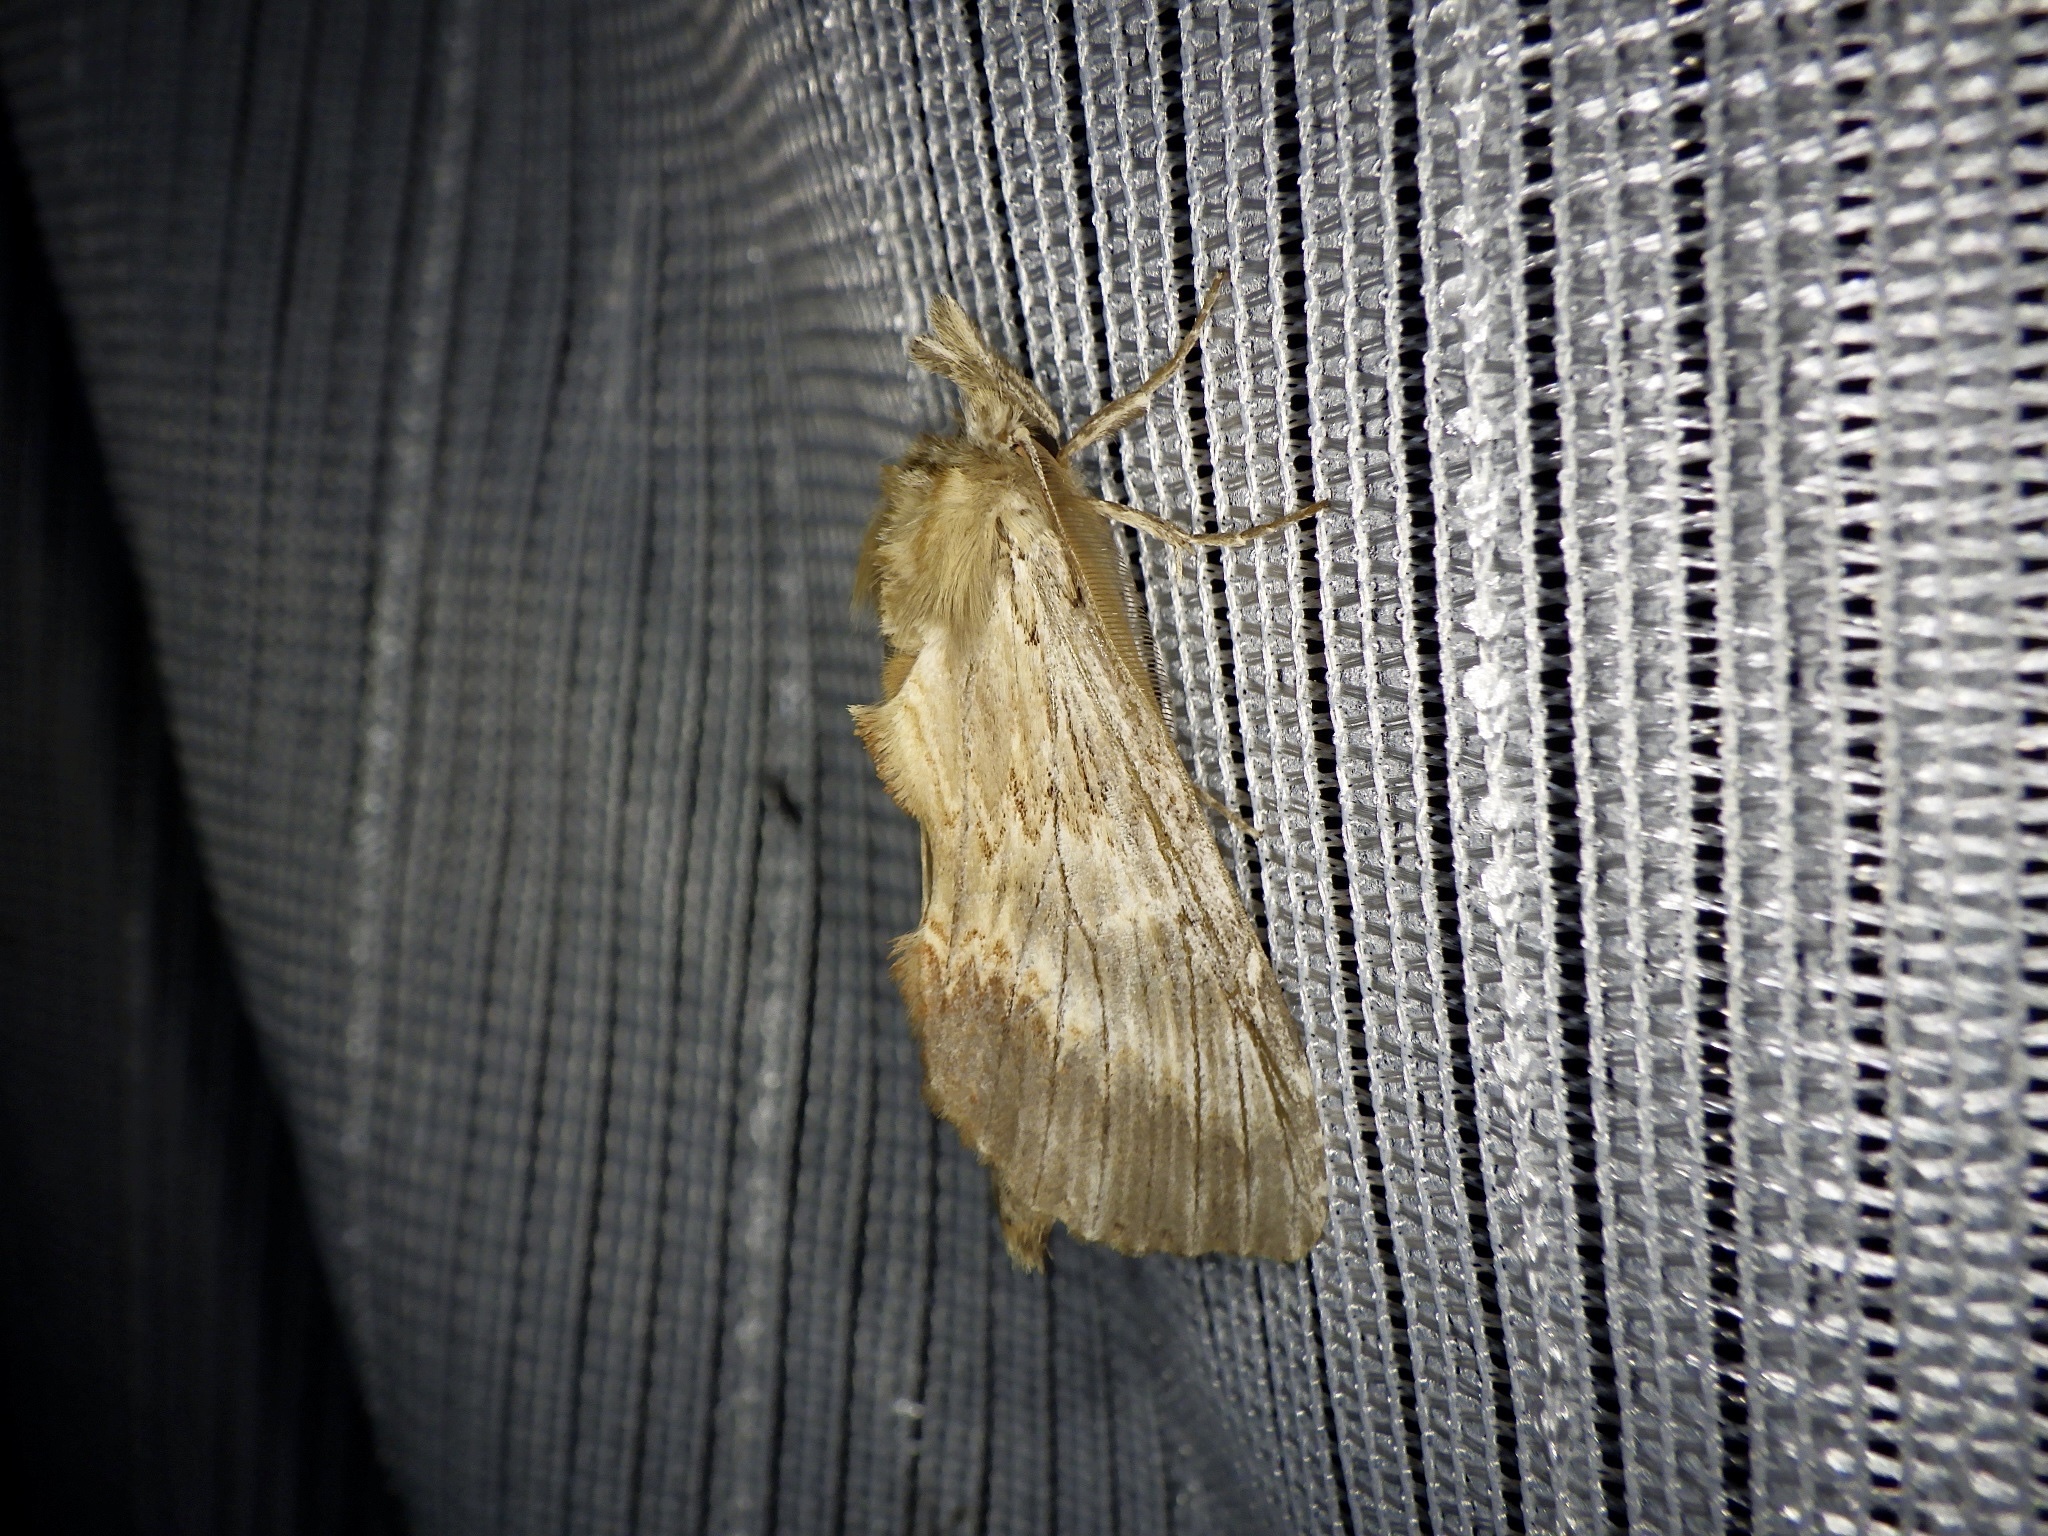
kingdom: Animalia
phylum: Arthropoda
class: Insecta
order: Lepidoptera
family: Notodontidae
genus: Pterostoma
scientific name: Pterostoma gigantina
